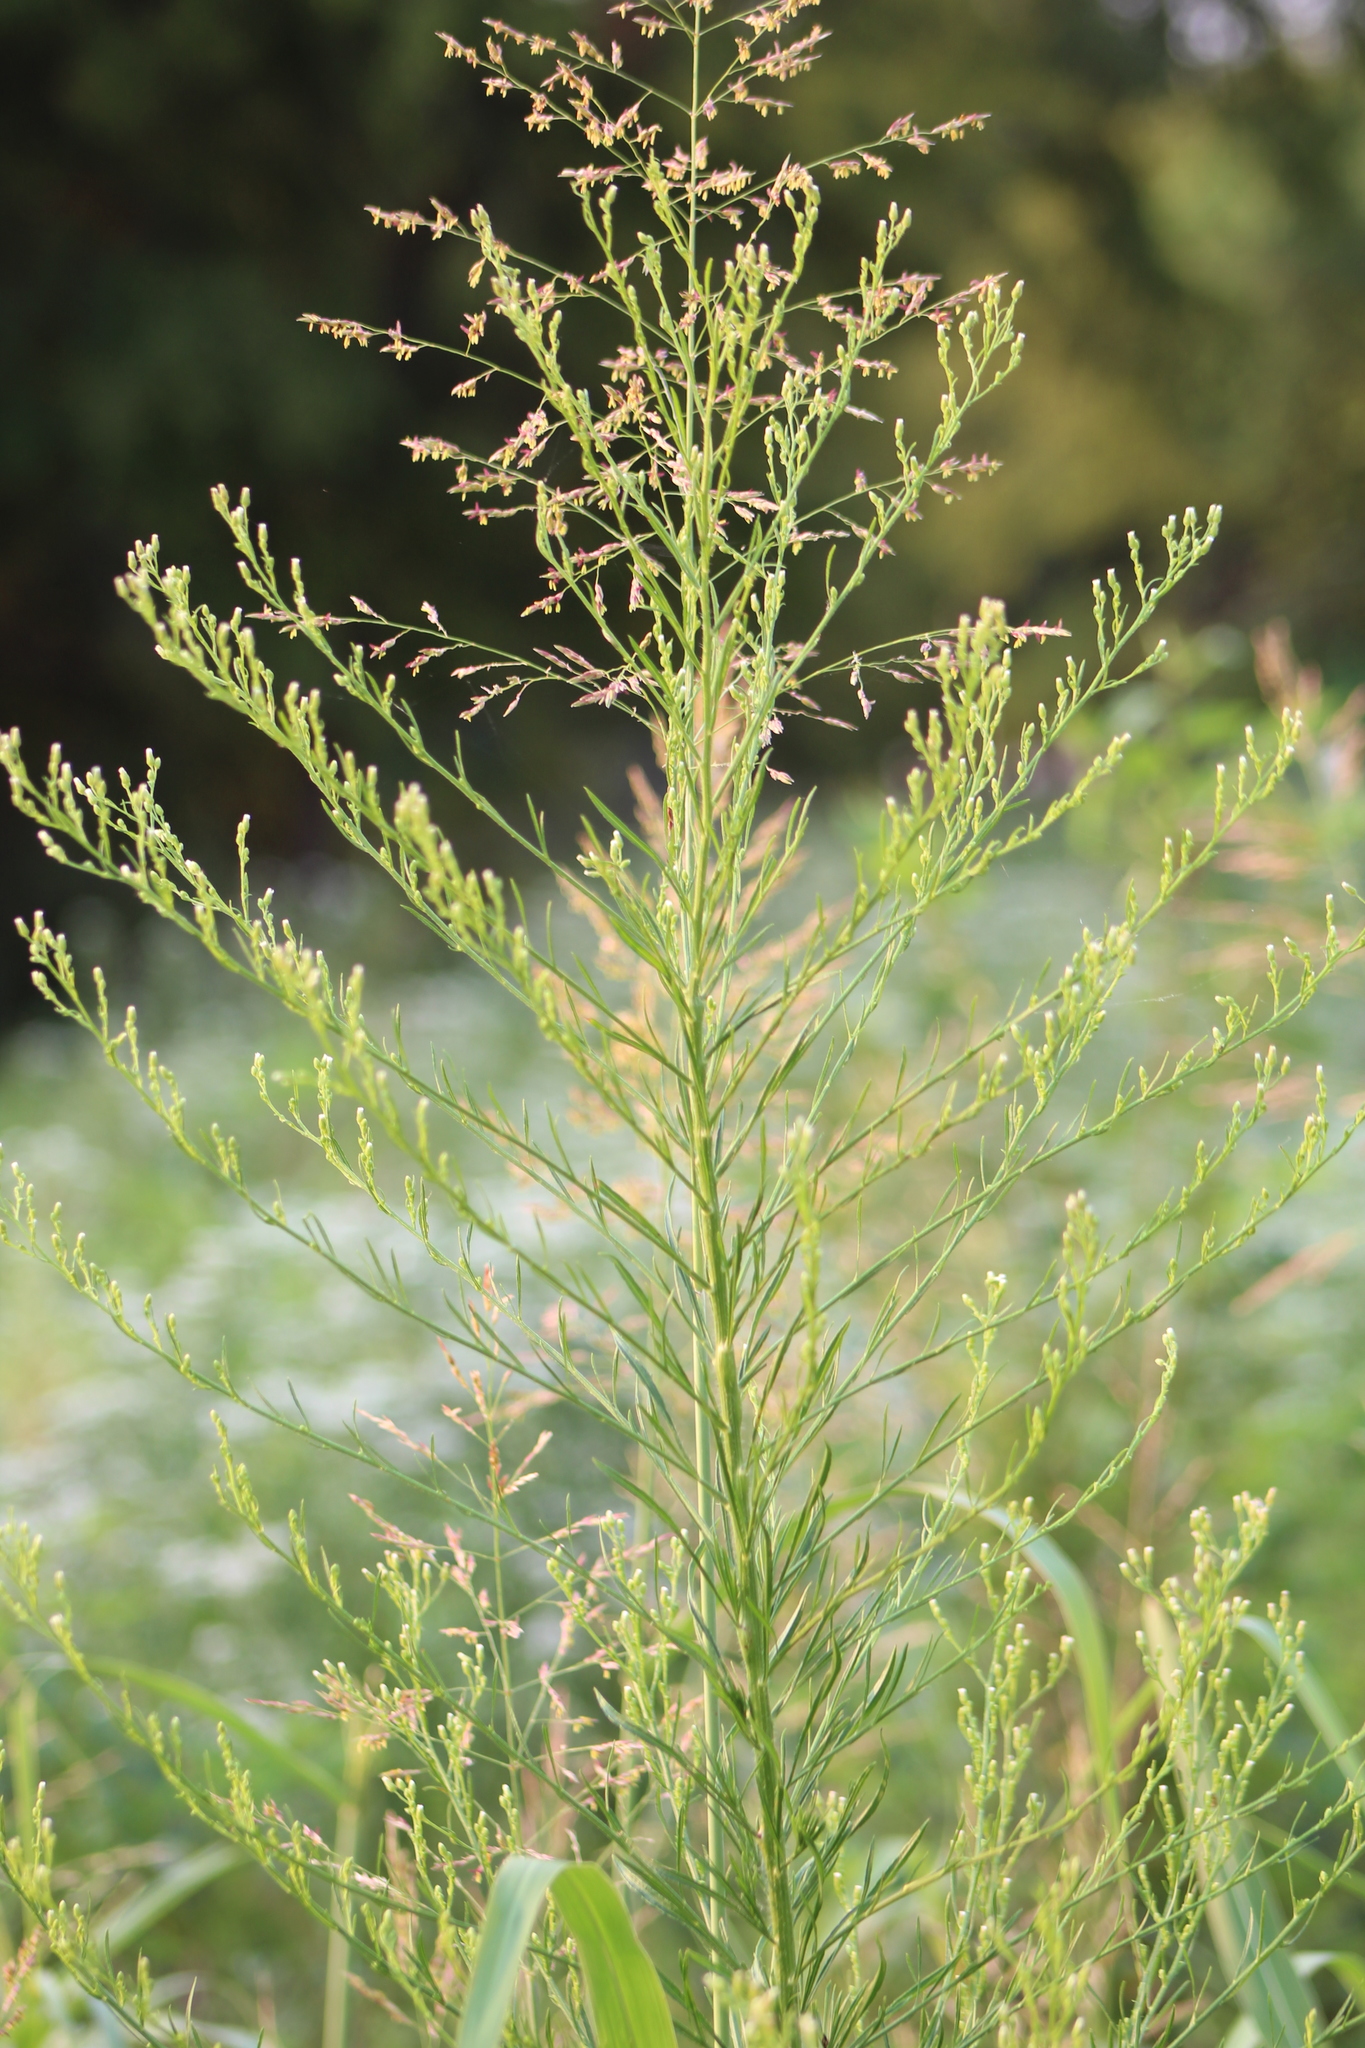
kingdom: Plantae
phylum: Tracheophyta
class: Magnoliopsida
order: Asterales
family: Asteraceae
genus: Erigeron
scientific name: Erigeron canadensis
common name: Canadian fleabane
